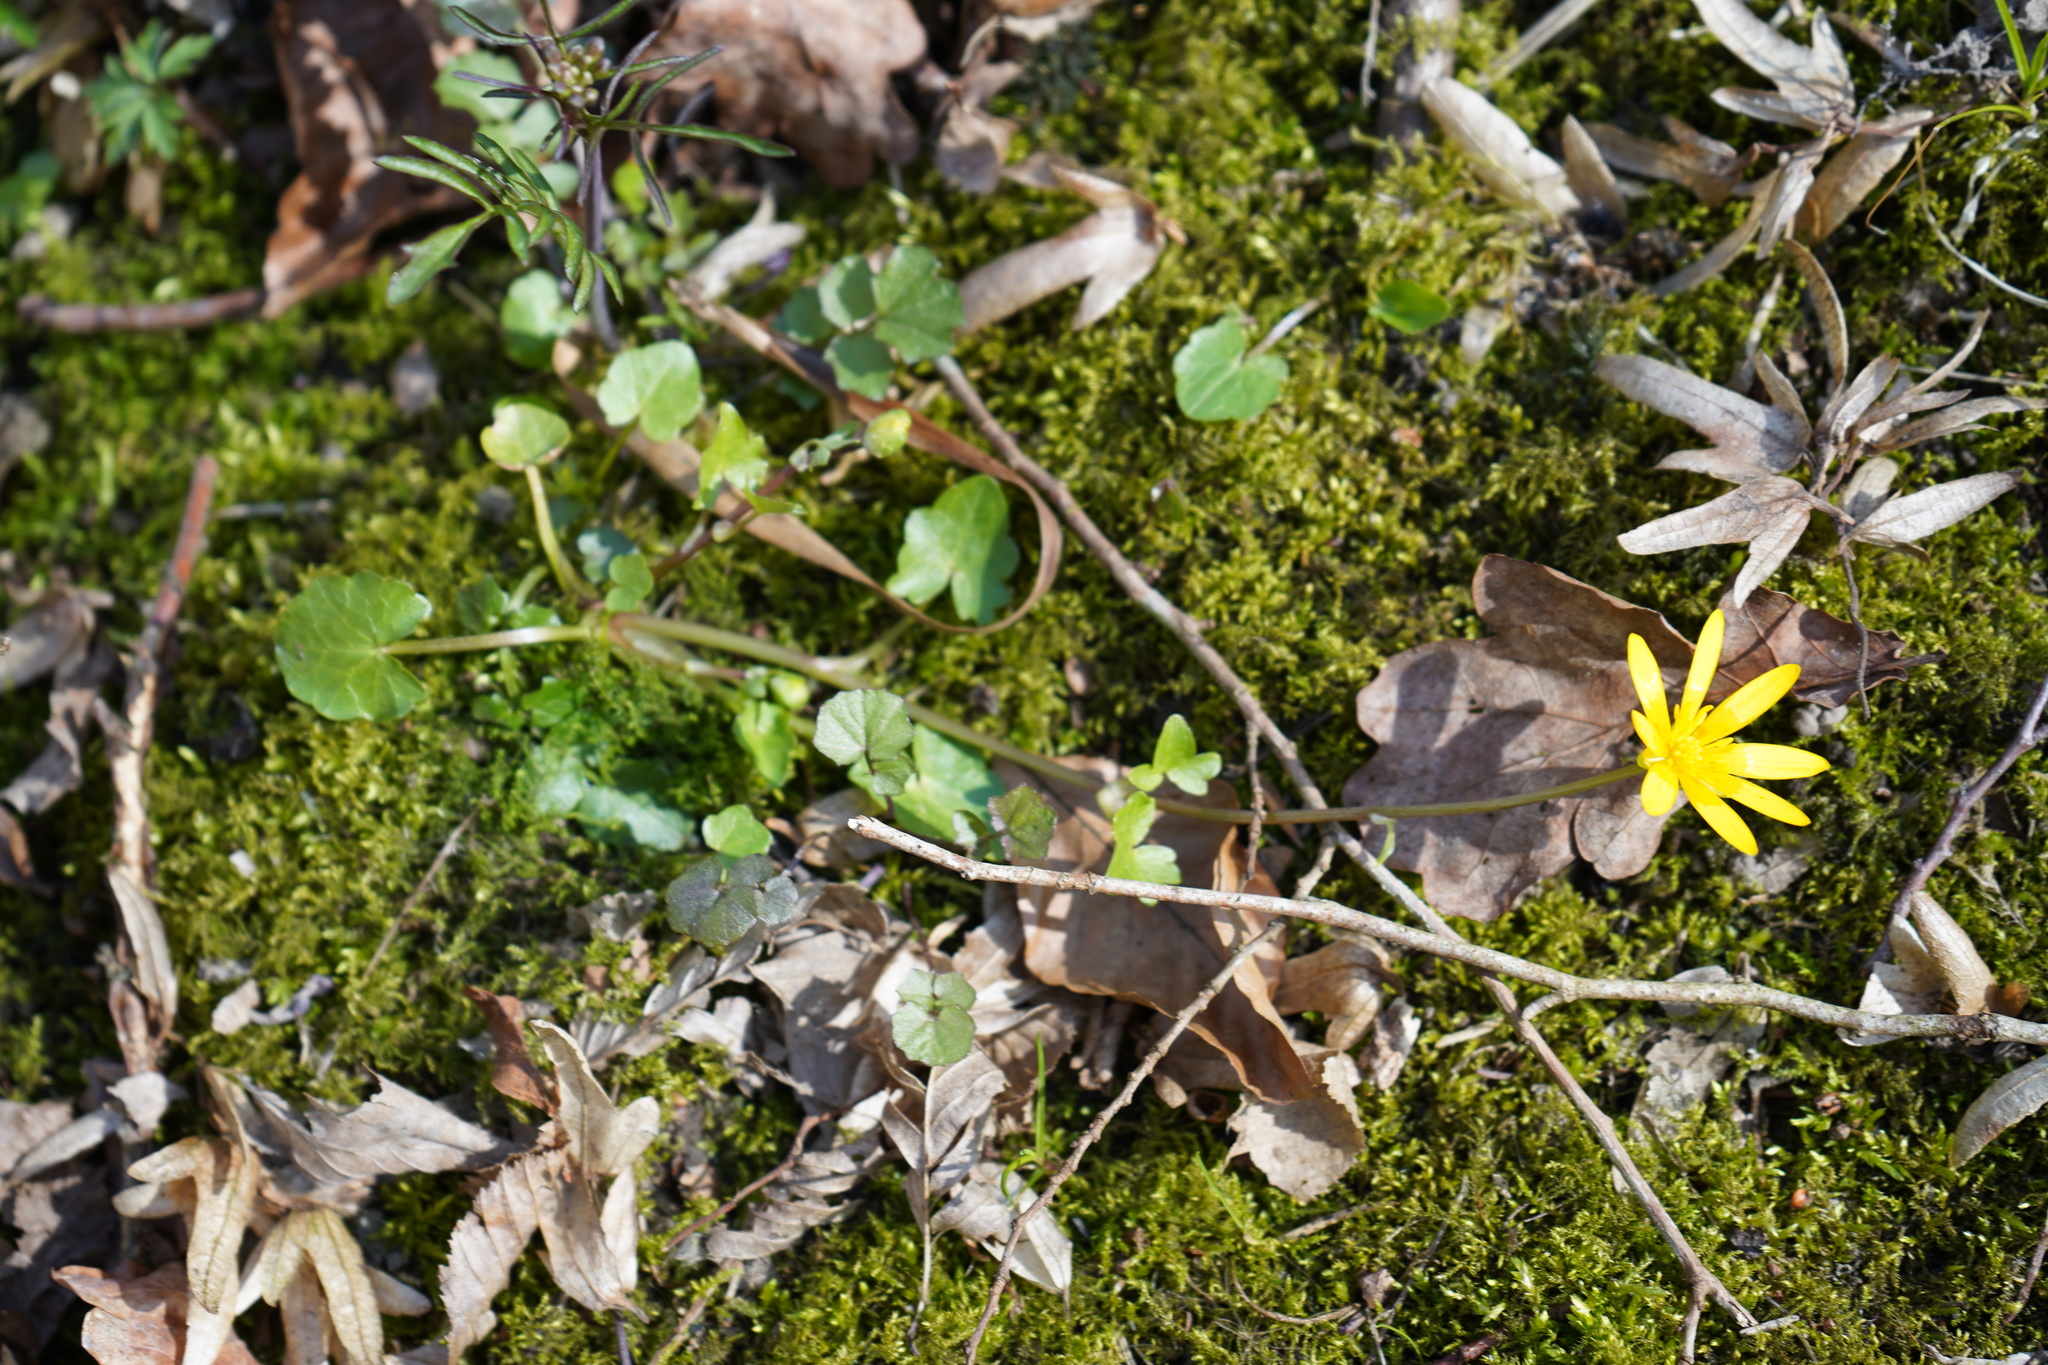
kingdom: Plantae
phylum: Tracheophyta
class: Magnoliopsida
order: Ranunculales
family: Ranunculaceae
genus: Ficaria
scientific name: Ficaria verna
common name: Lesser celandine
